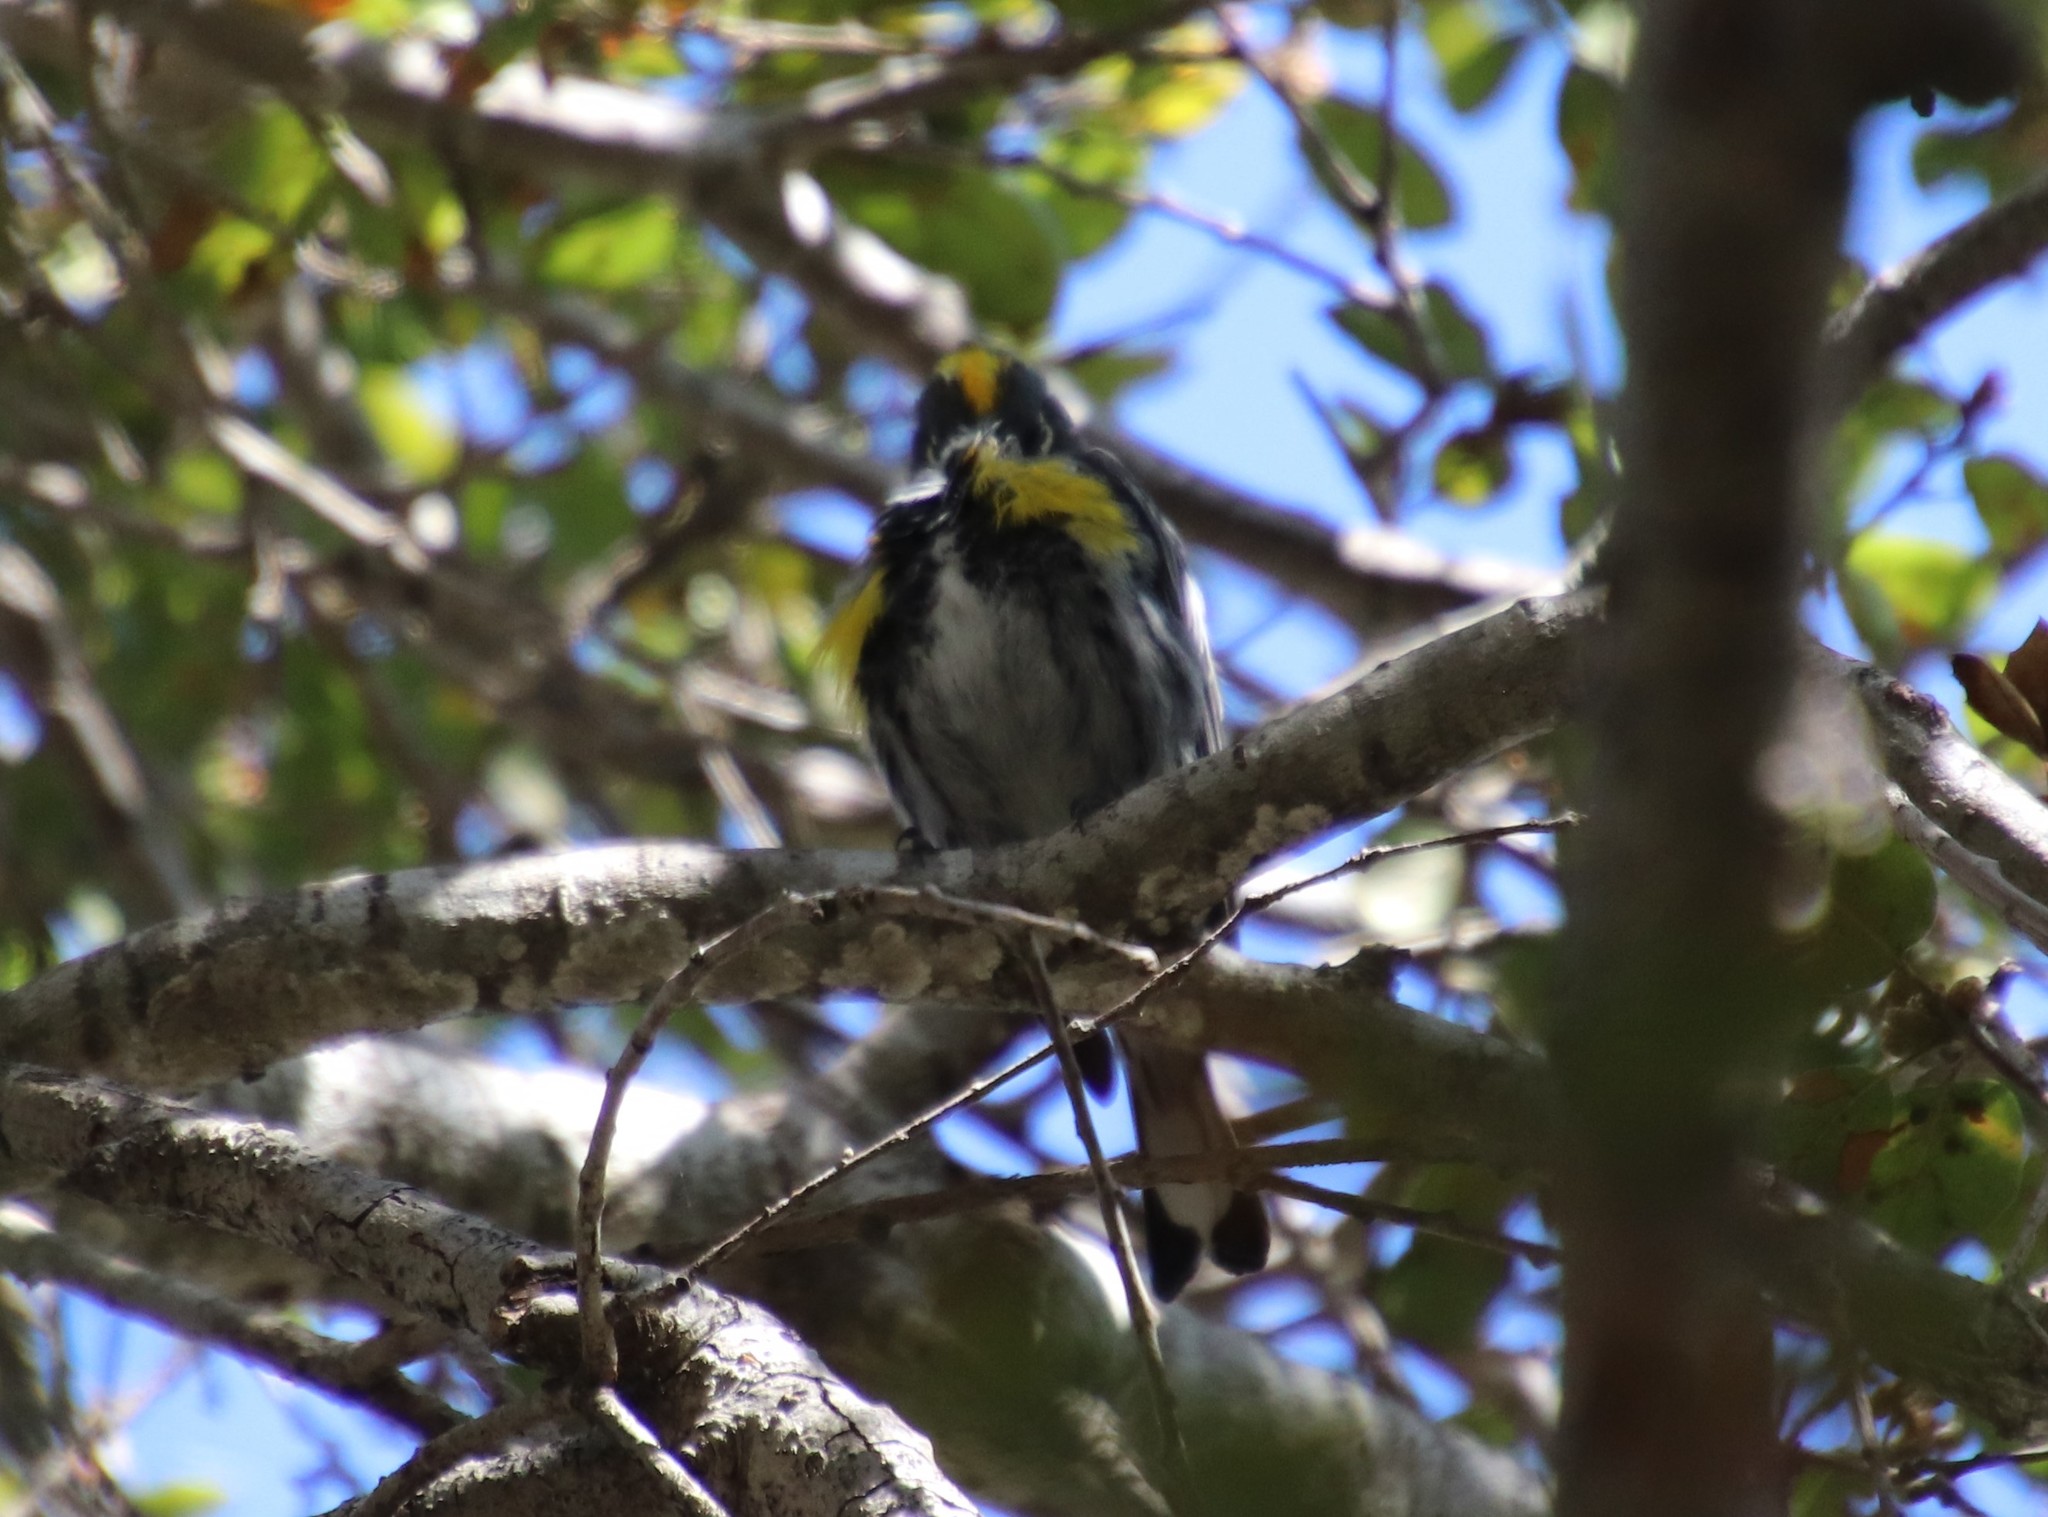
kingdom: Animalia
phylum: Chordata
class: Aves
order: Passeriformes
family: Parulidae
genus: Setophaga
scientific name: Setophaga auduboni
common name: Audubon's warbler
